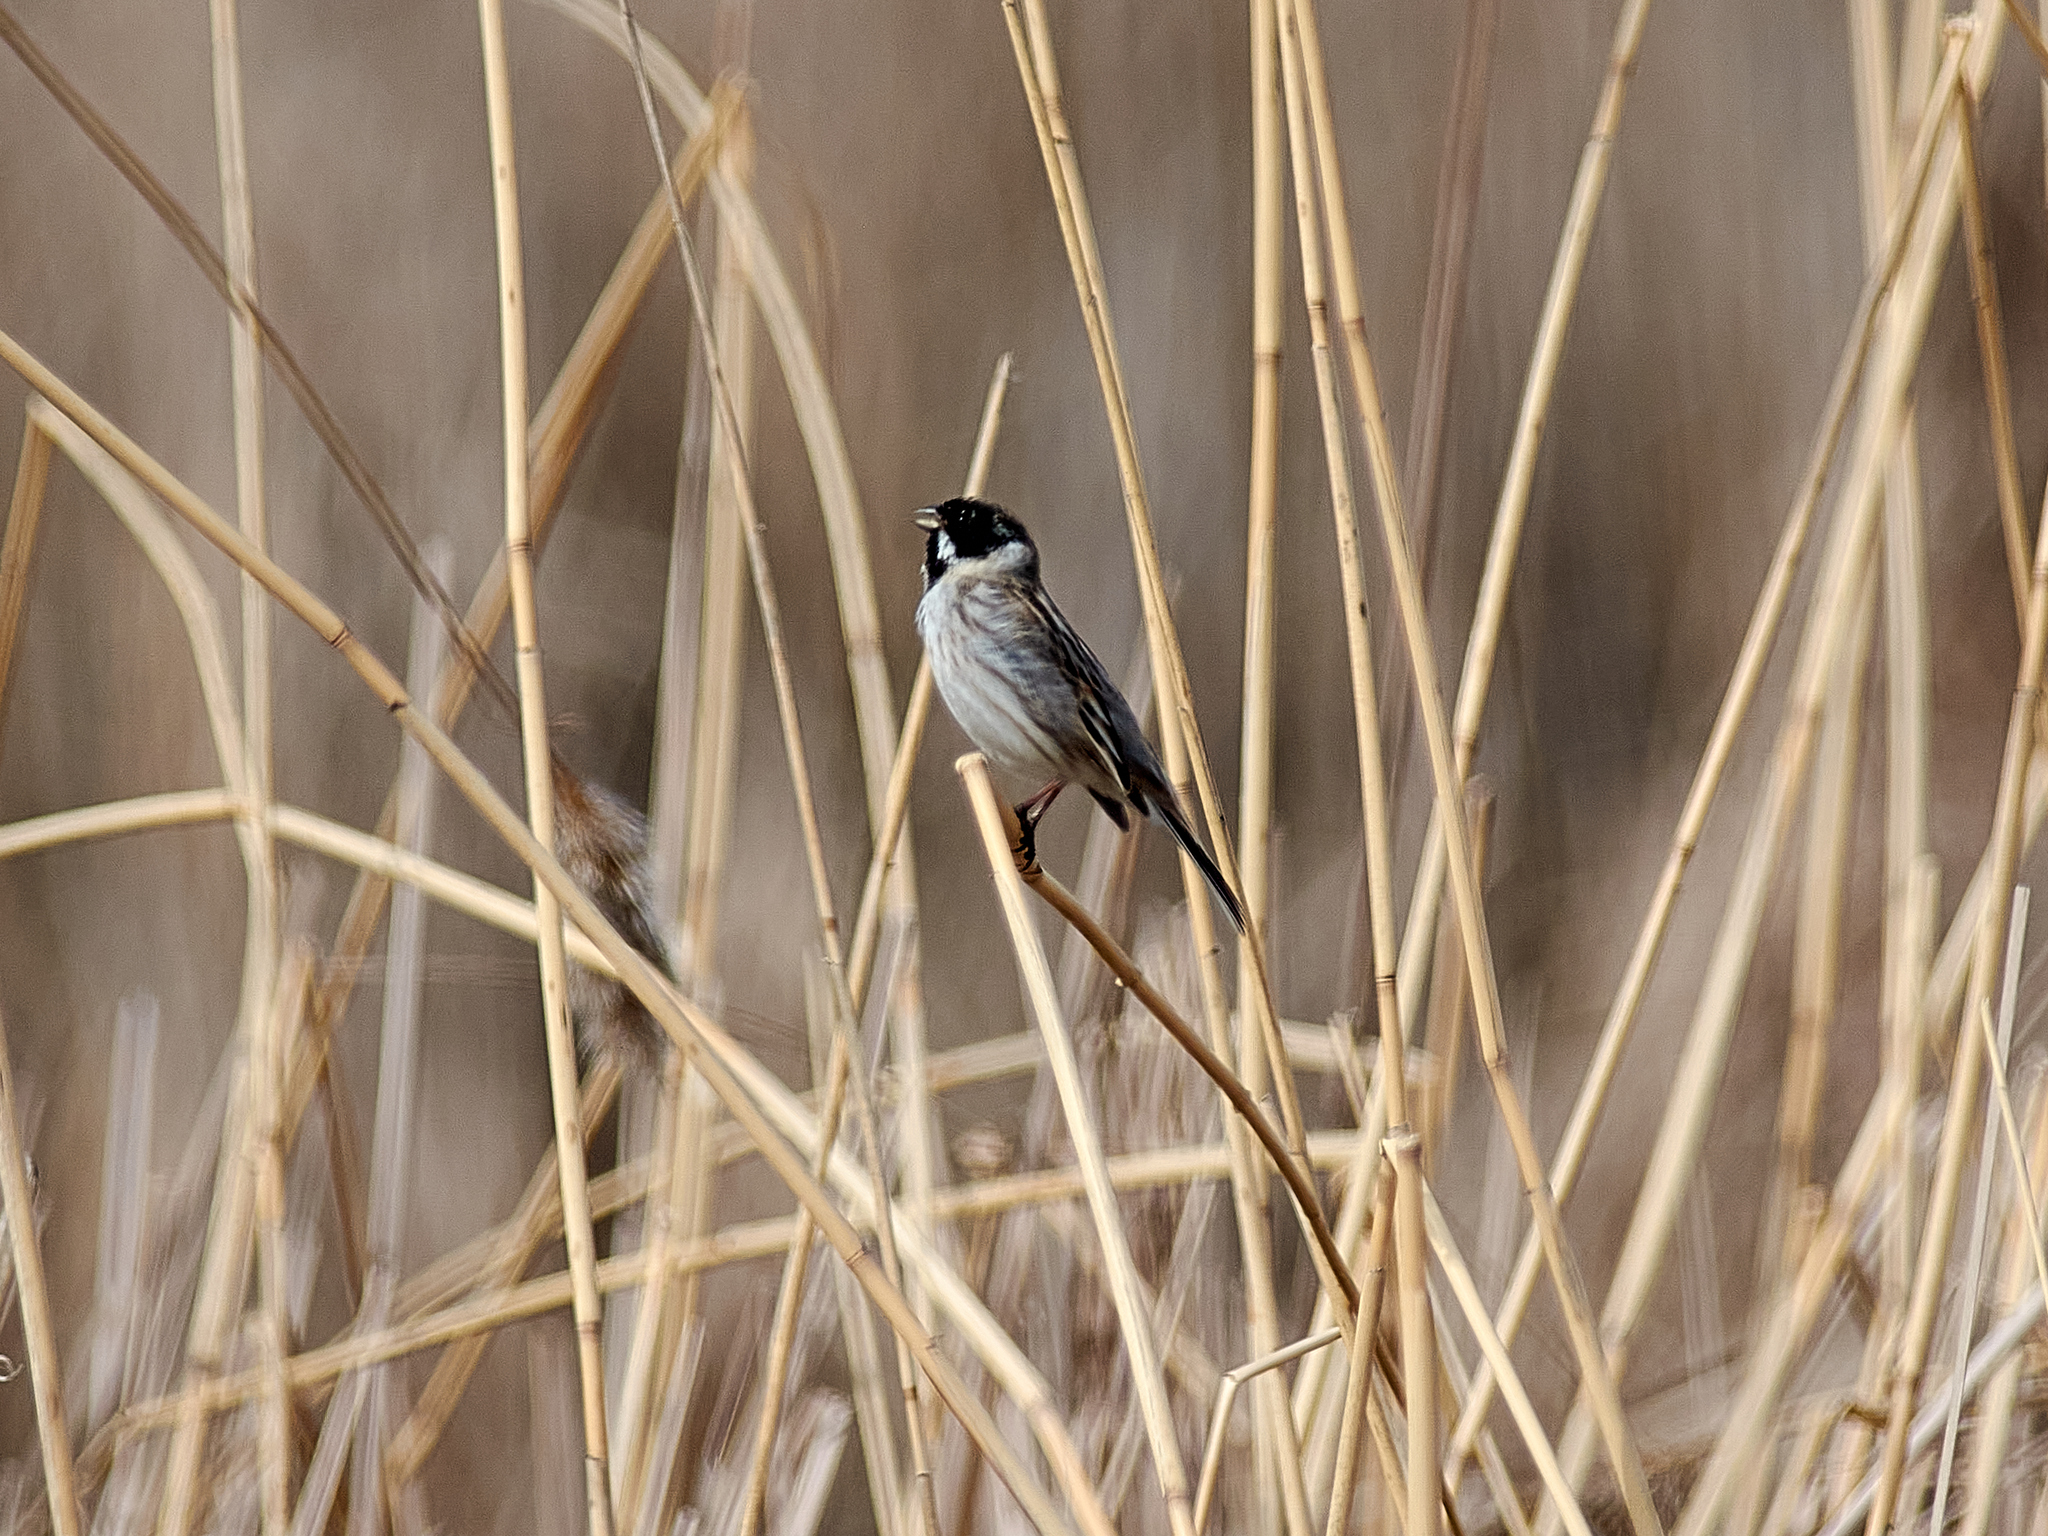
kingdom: Animalia
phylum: Chordata
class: Aves
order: Passeriformes
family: Emberizidae
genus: Emberiza
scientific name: Emberiza schoeniclus
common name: Reed bunting
